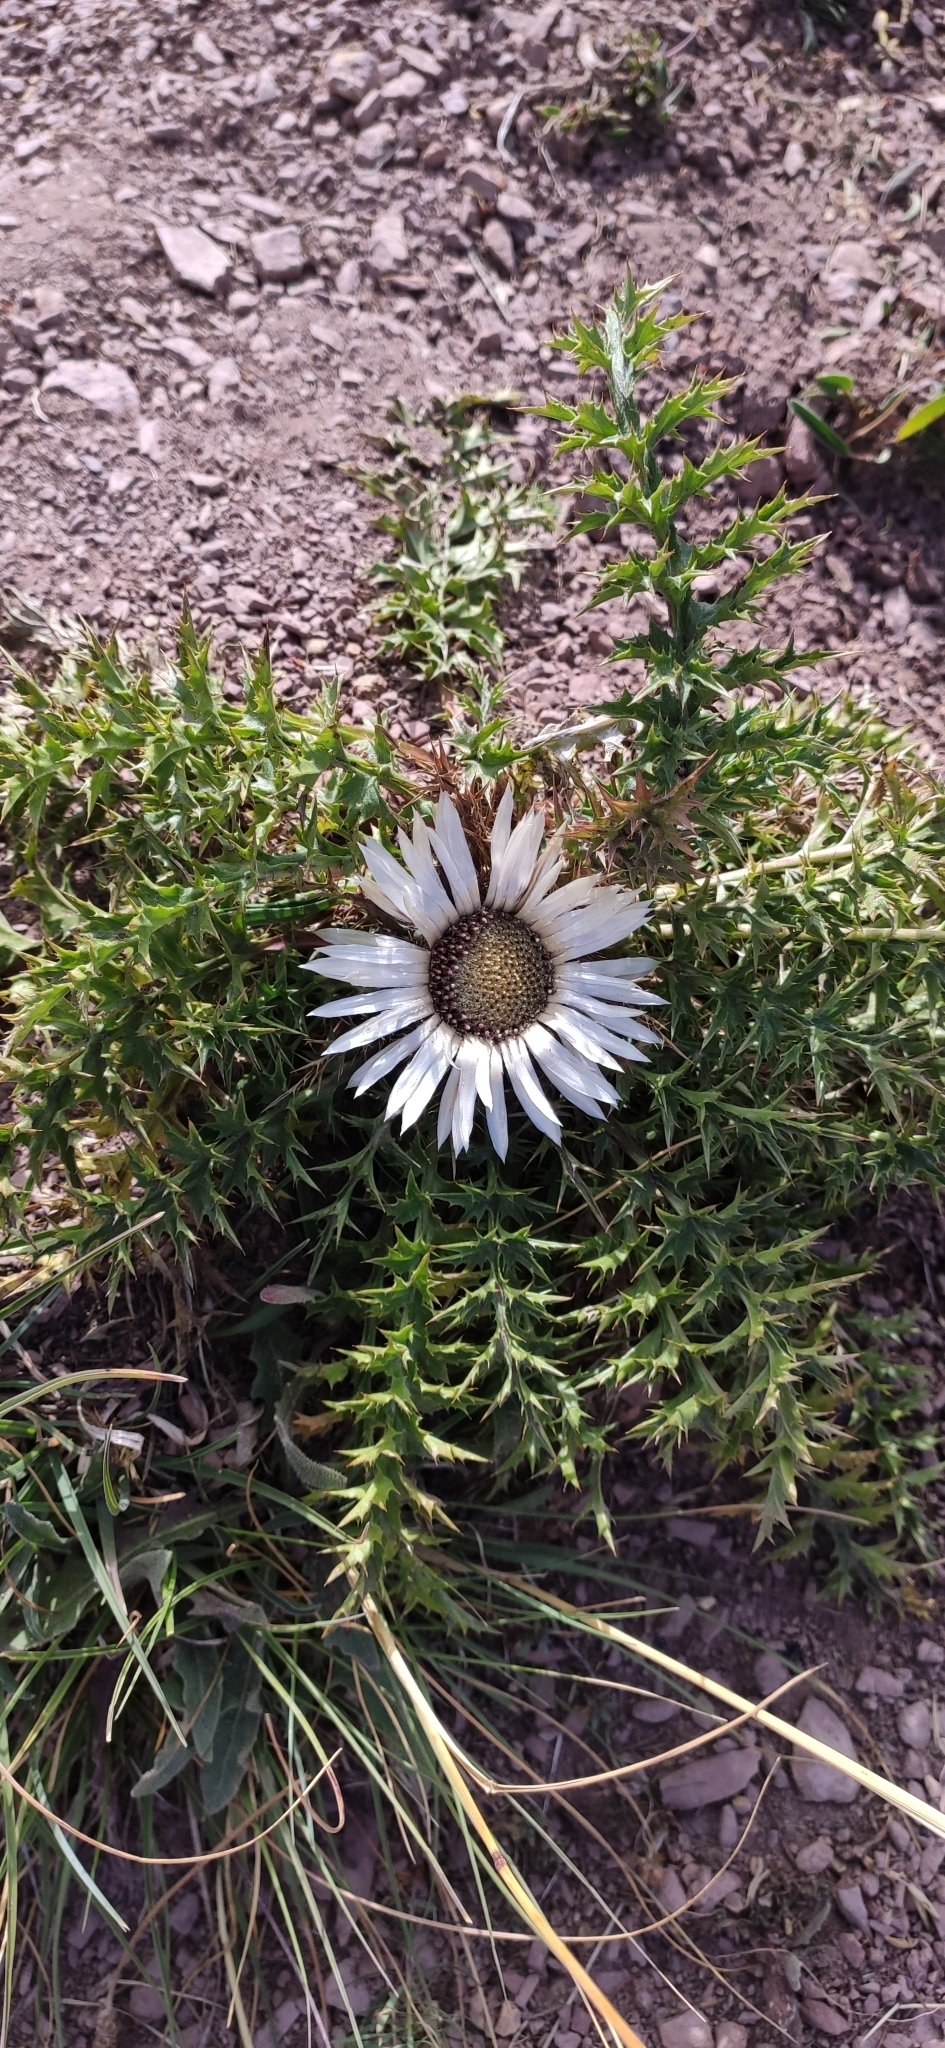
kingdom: Plantae
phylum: Tracheophyta
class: Magnoliopsida
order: Asterales
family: Asteraceae
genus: Carlina
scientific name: Carlina acaulis
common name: Stemless carline thistle
